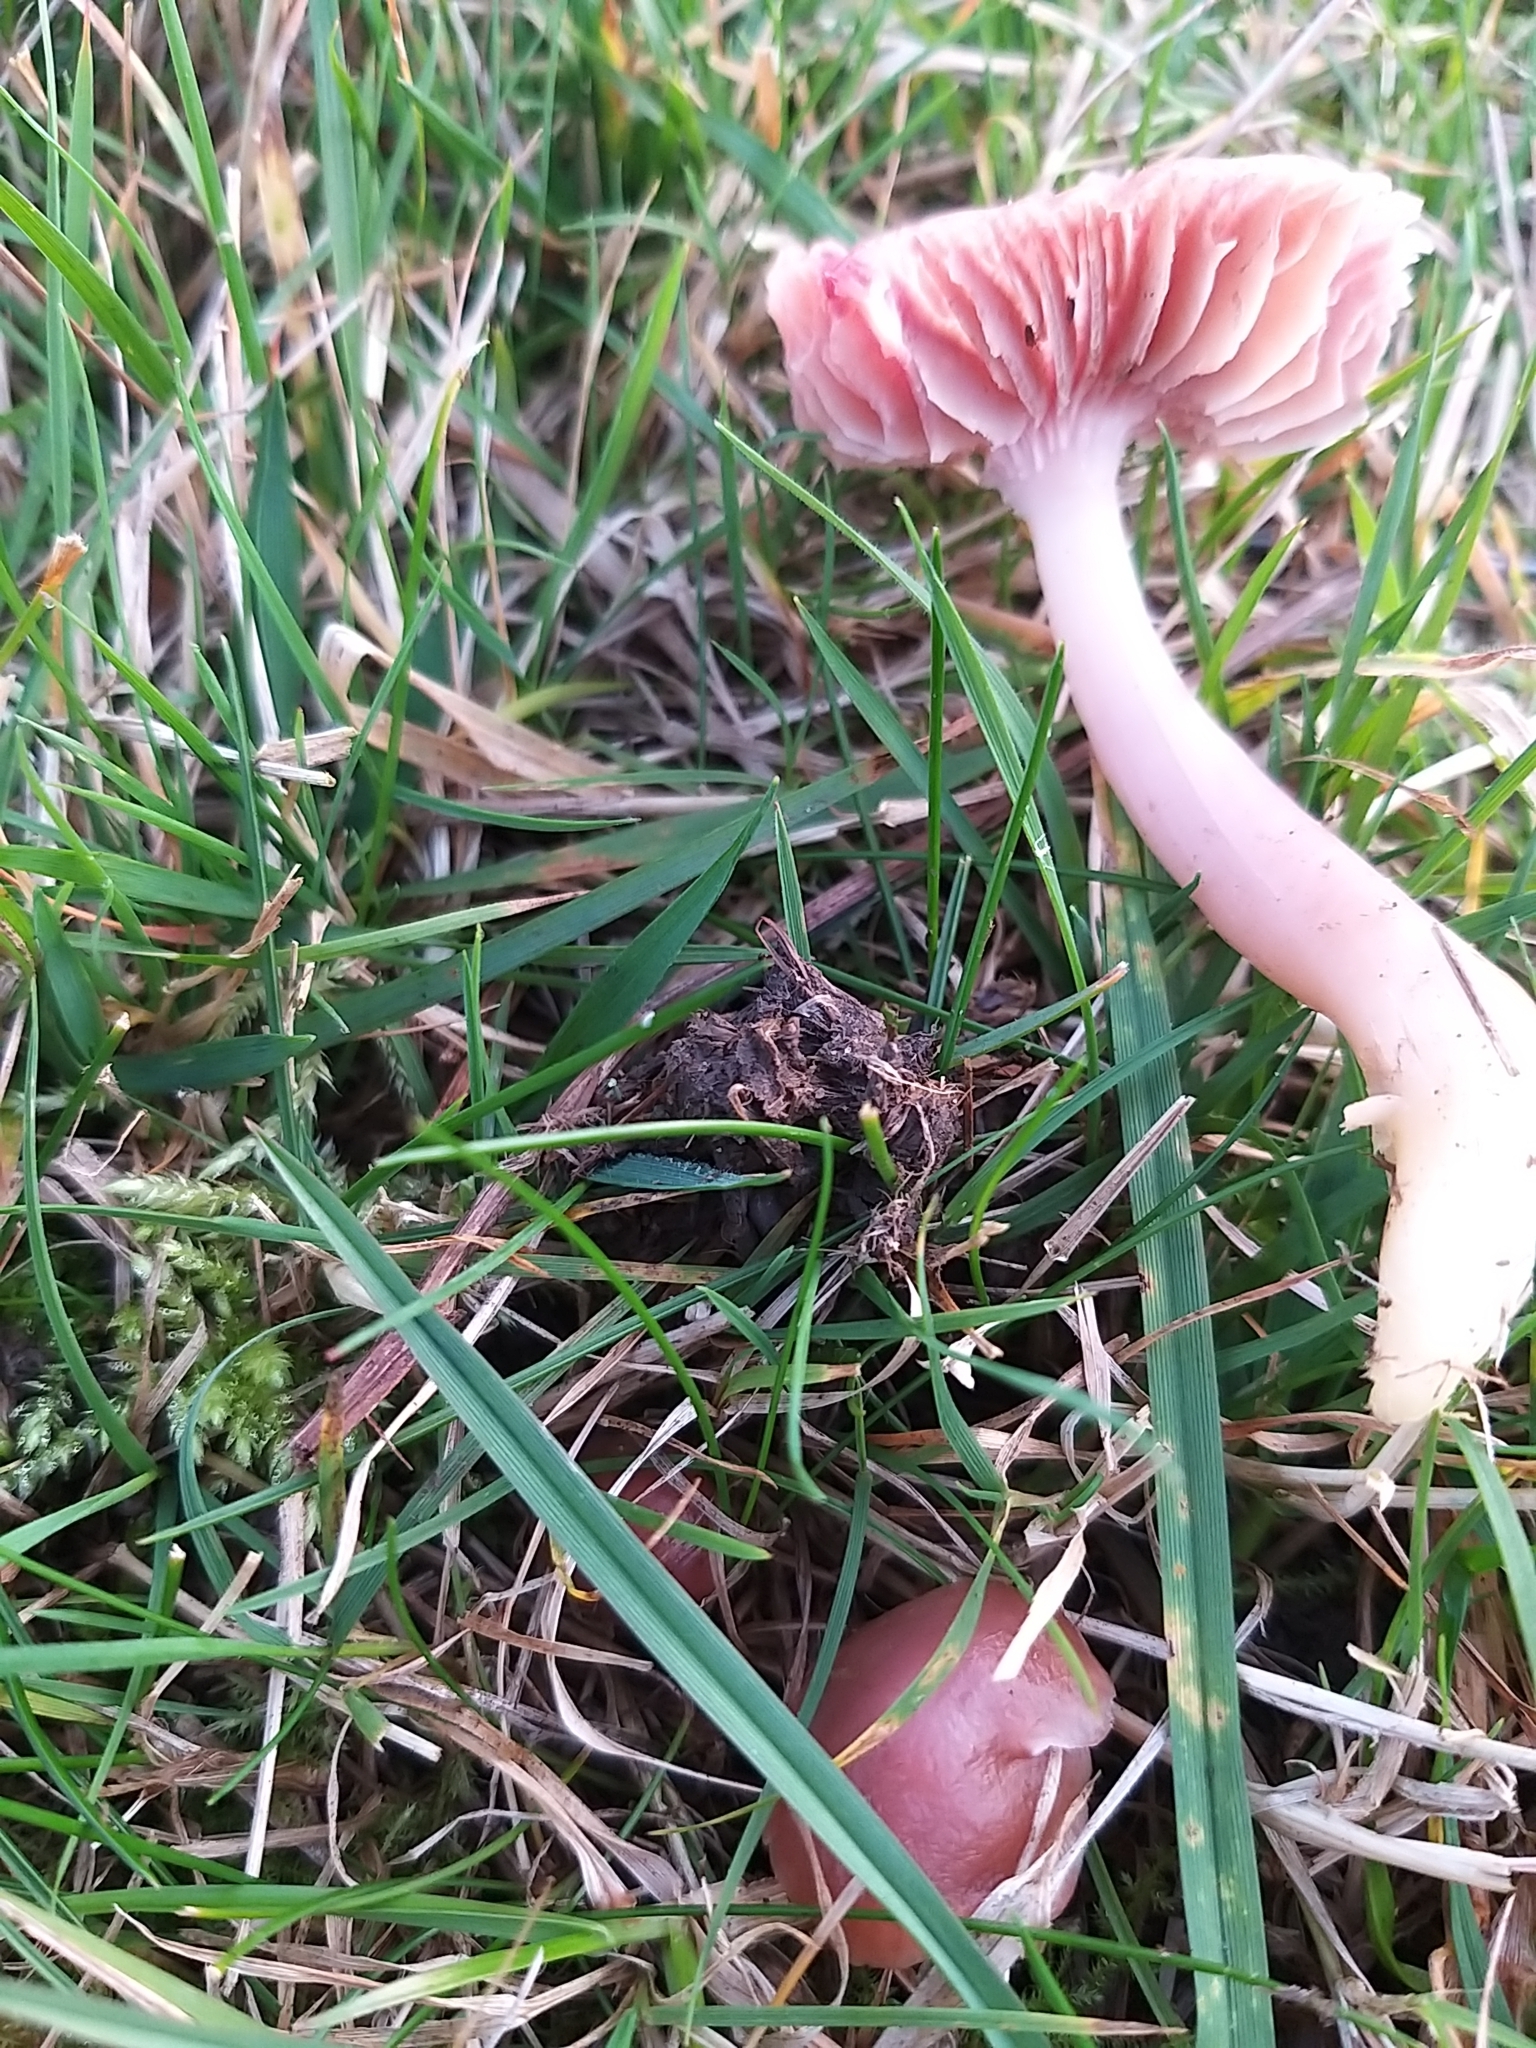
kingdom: Fungi
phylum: Basidiomycota
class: Agaricomycetes
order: Agaricales
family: Hygrophoraceae
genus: Gliophorus
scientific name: Gliophorus reginae
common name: Jubilee waxcap
